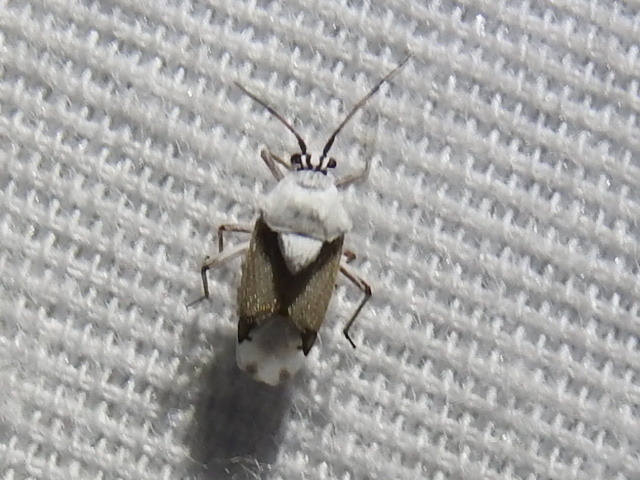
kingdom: Animalia
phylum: Arthropoda
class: Insecta
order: Hemiptera
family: Miridae
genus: Clivinema
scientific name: Clivinema villosa
